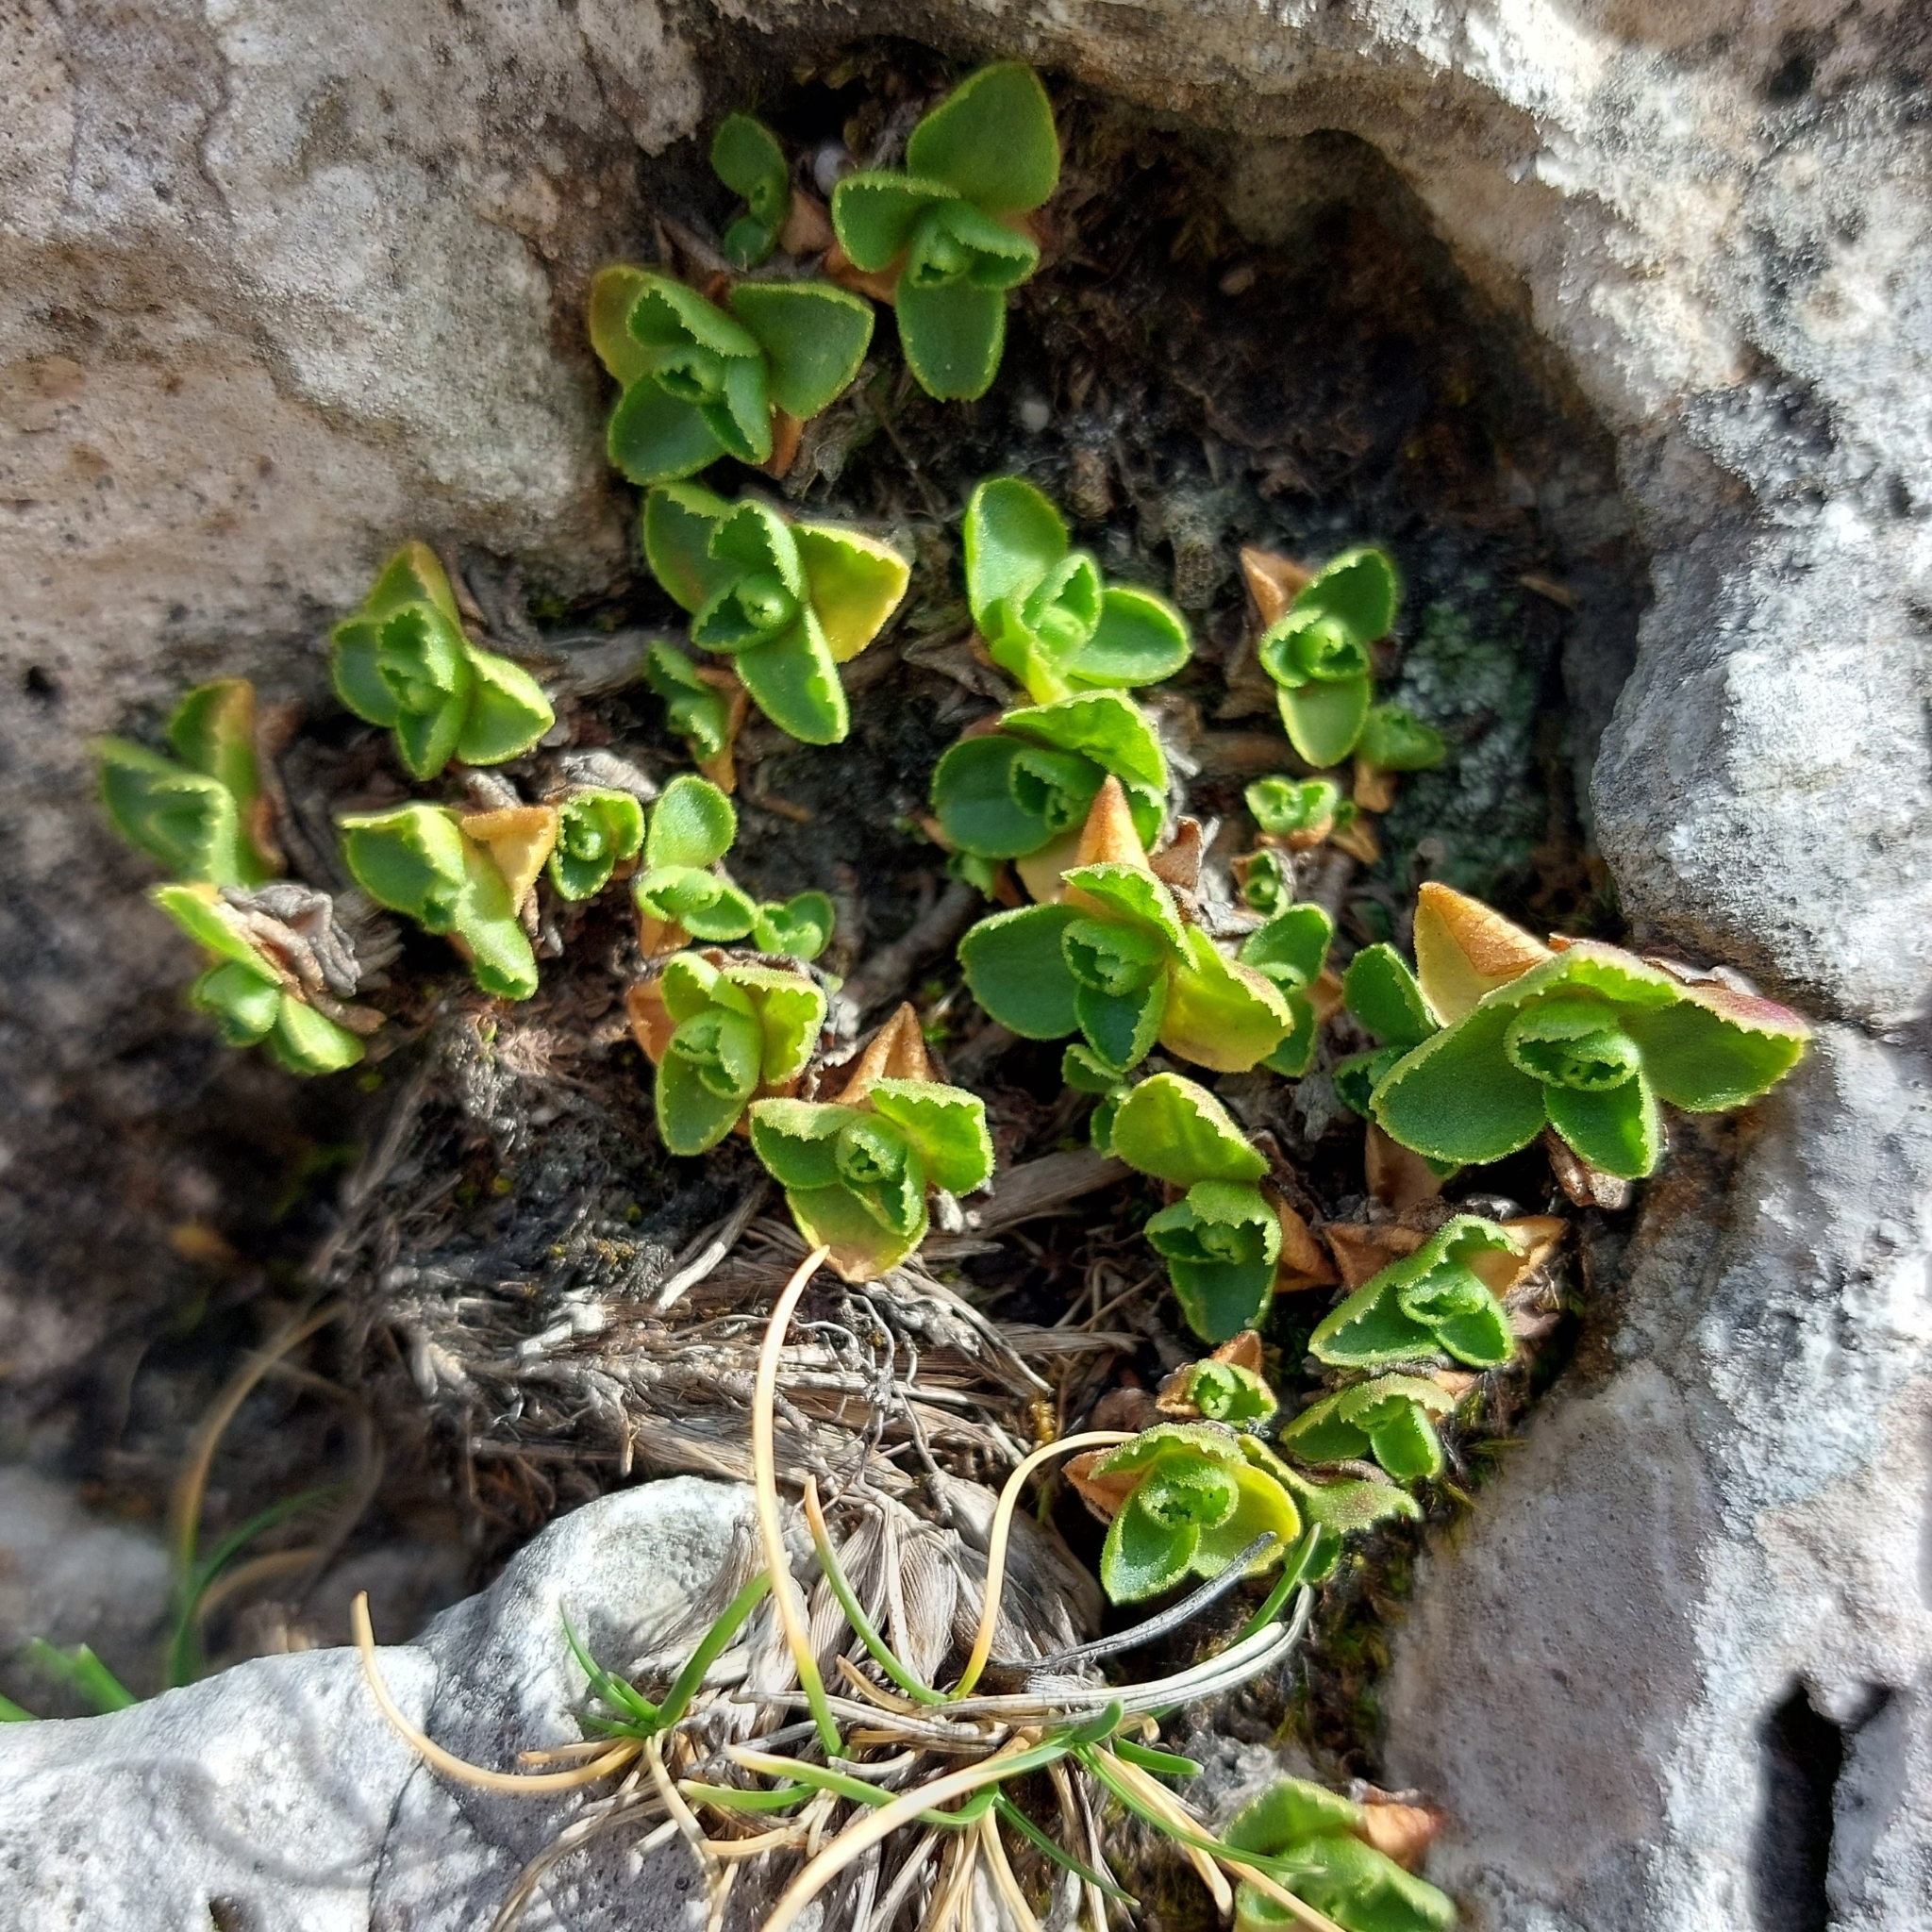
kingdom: Plantae
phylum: Tracheophyta
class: Magnoliopsida
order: Ericales
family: Primulaceae
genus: Primula
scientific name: Primula tyrolensis
